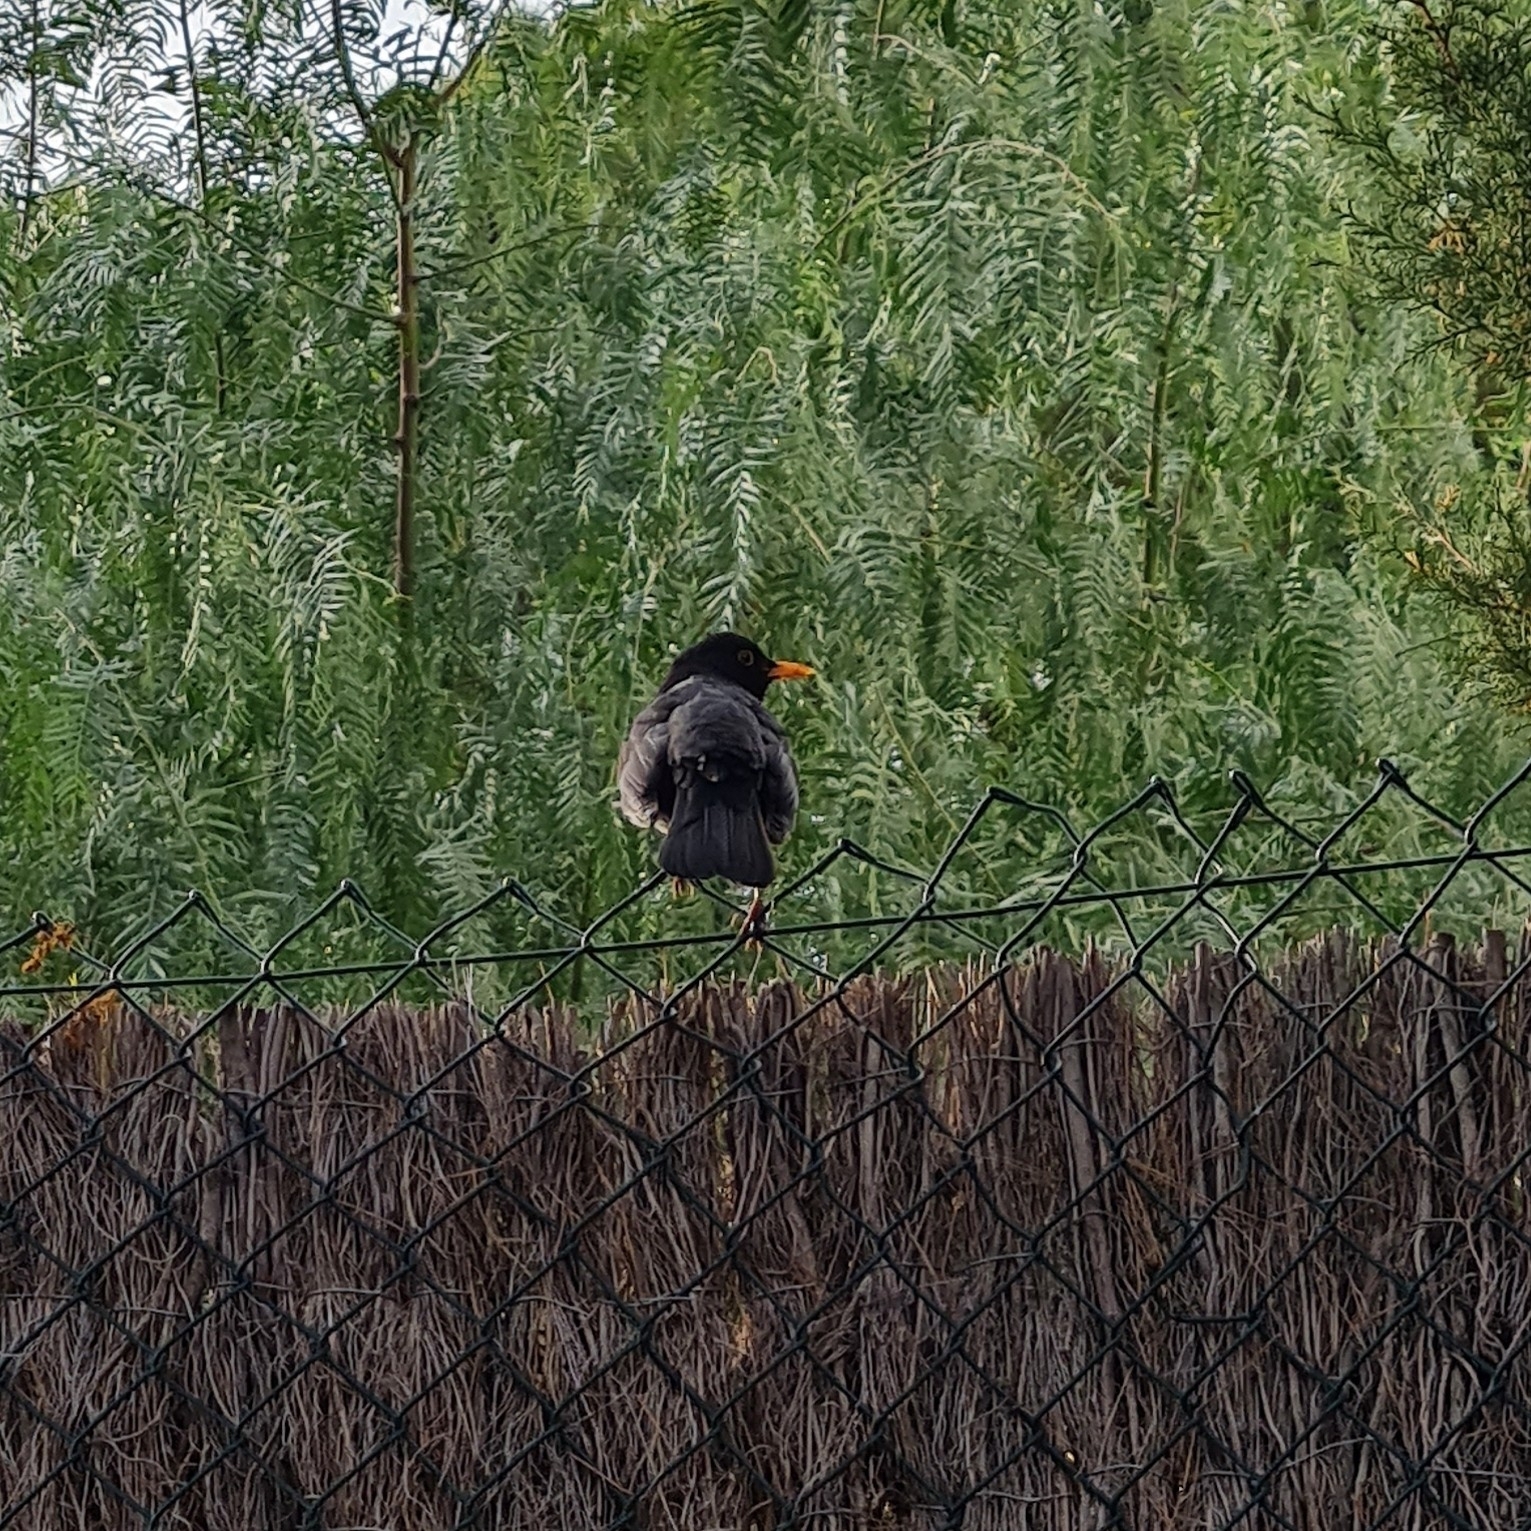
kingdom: Animalia
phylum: Chordata
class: Aves
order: Passeriformes
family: Turdidae
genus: Turdus
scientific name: Turdus merula
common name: Common blackbird
